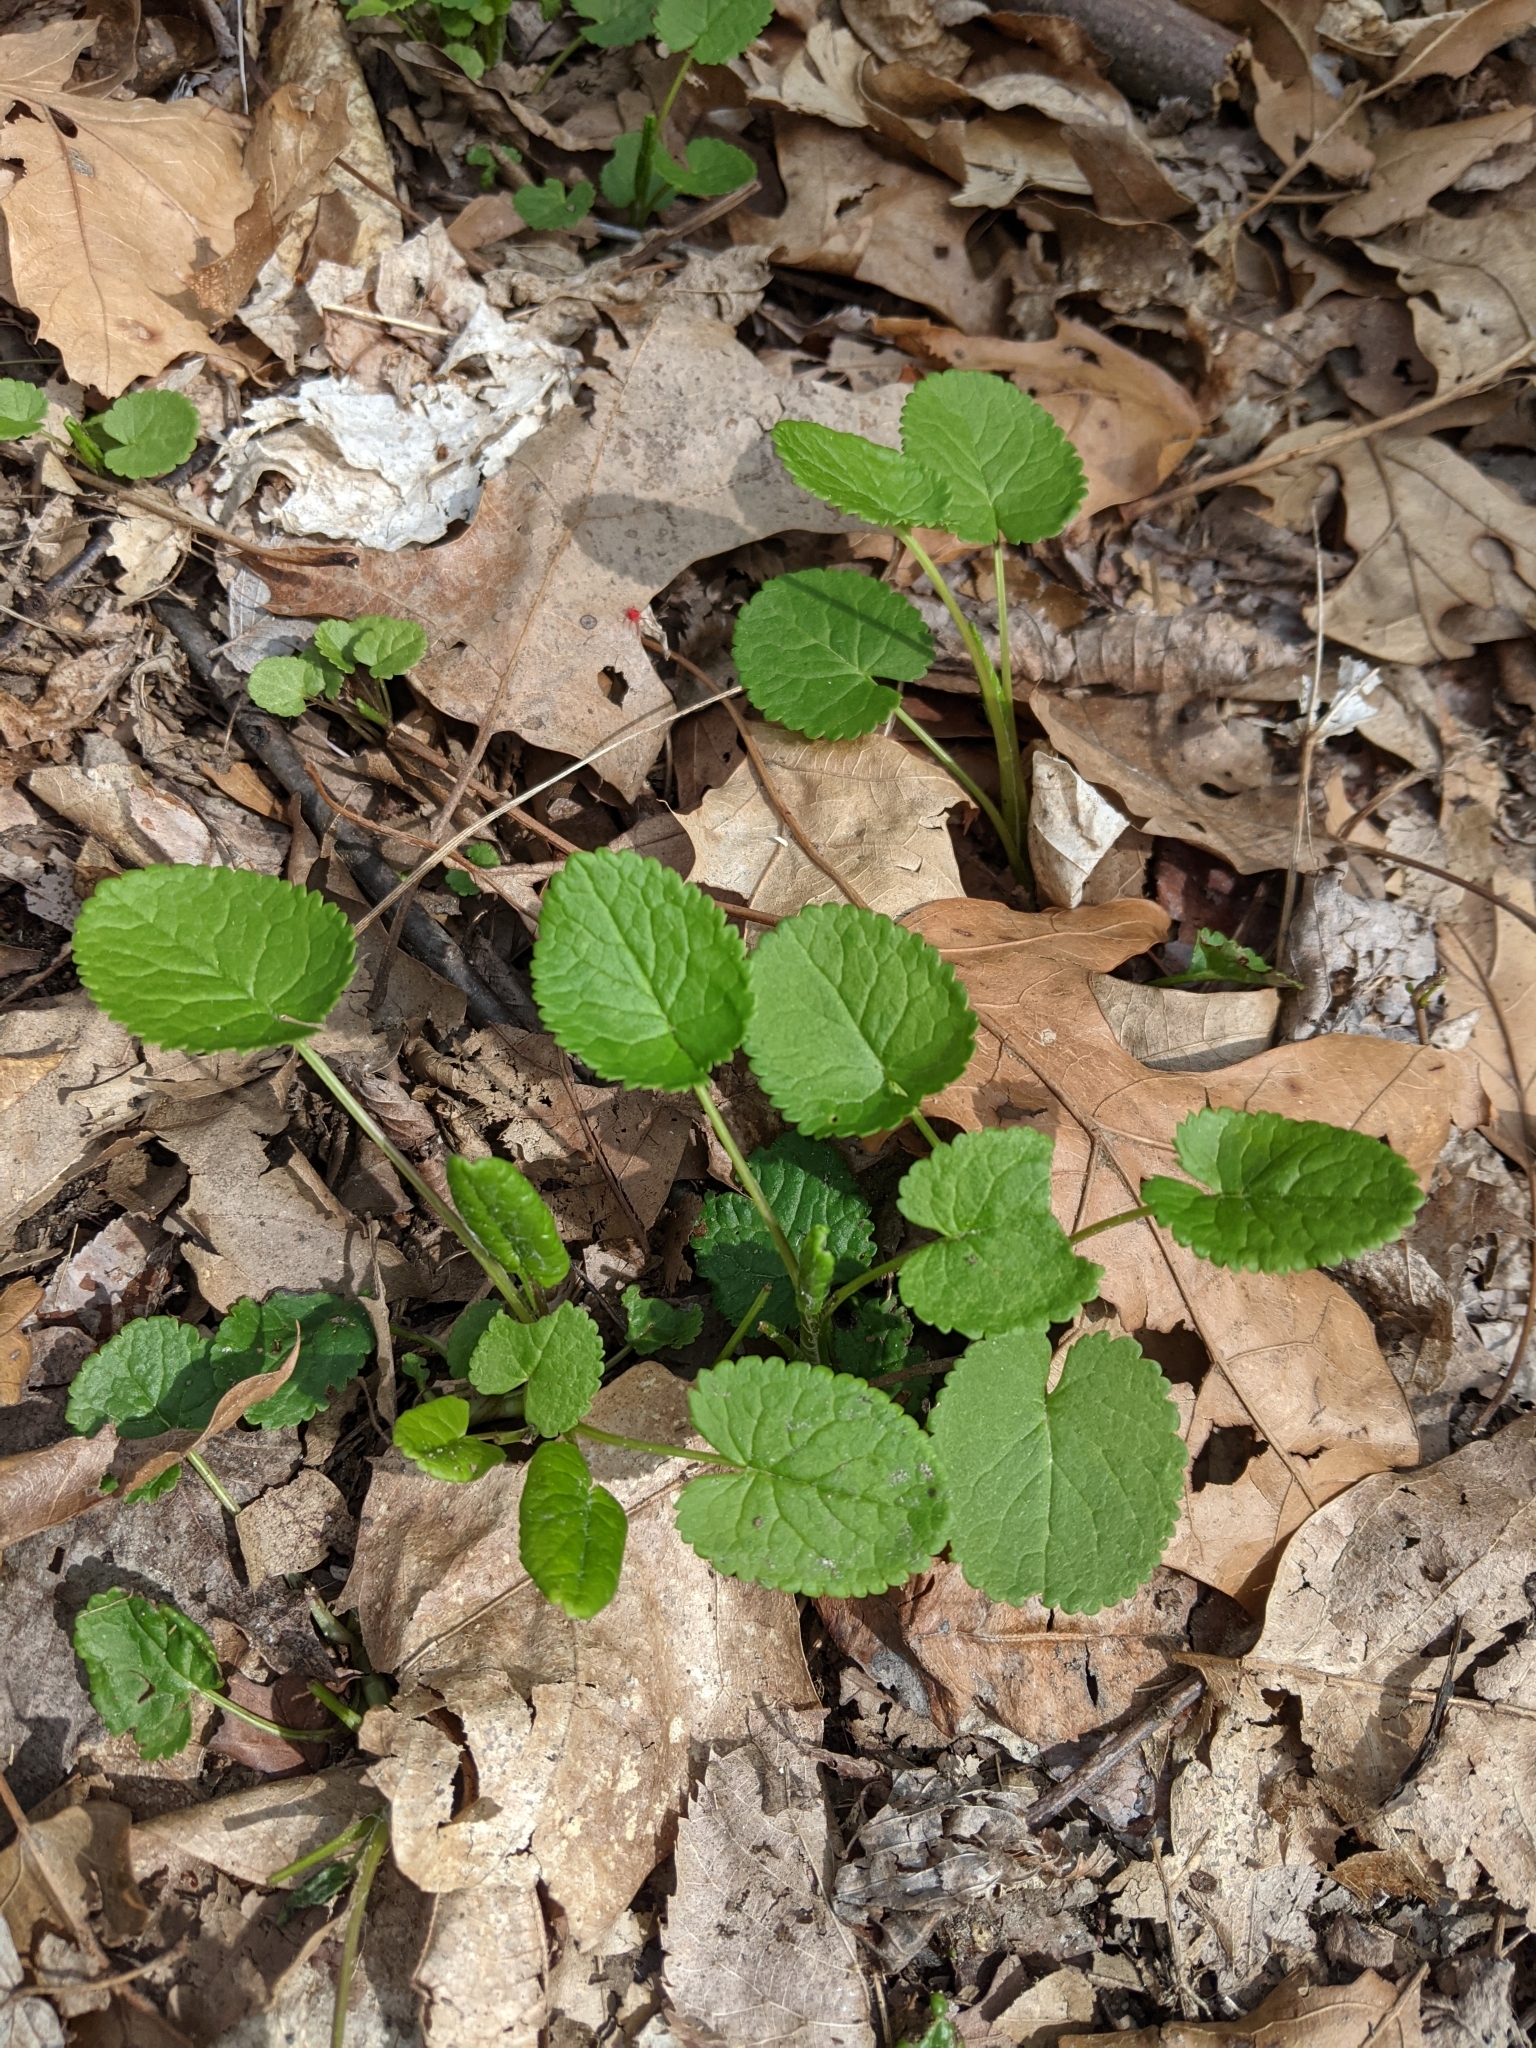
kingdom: Plantae
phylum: Tracheophyta
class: Magnoliopsida
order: Asterales
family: Asteraceae
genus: Packera
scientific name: Packera aurea
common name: Golden groundsel
